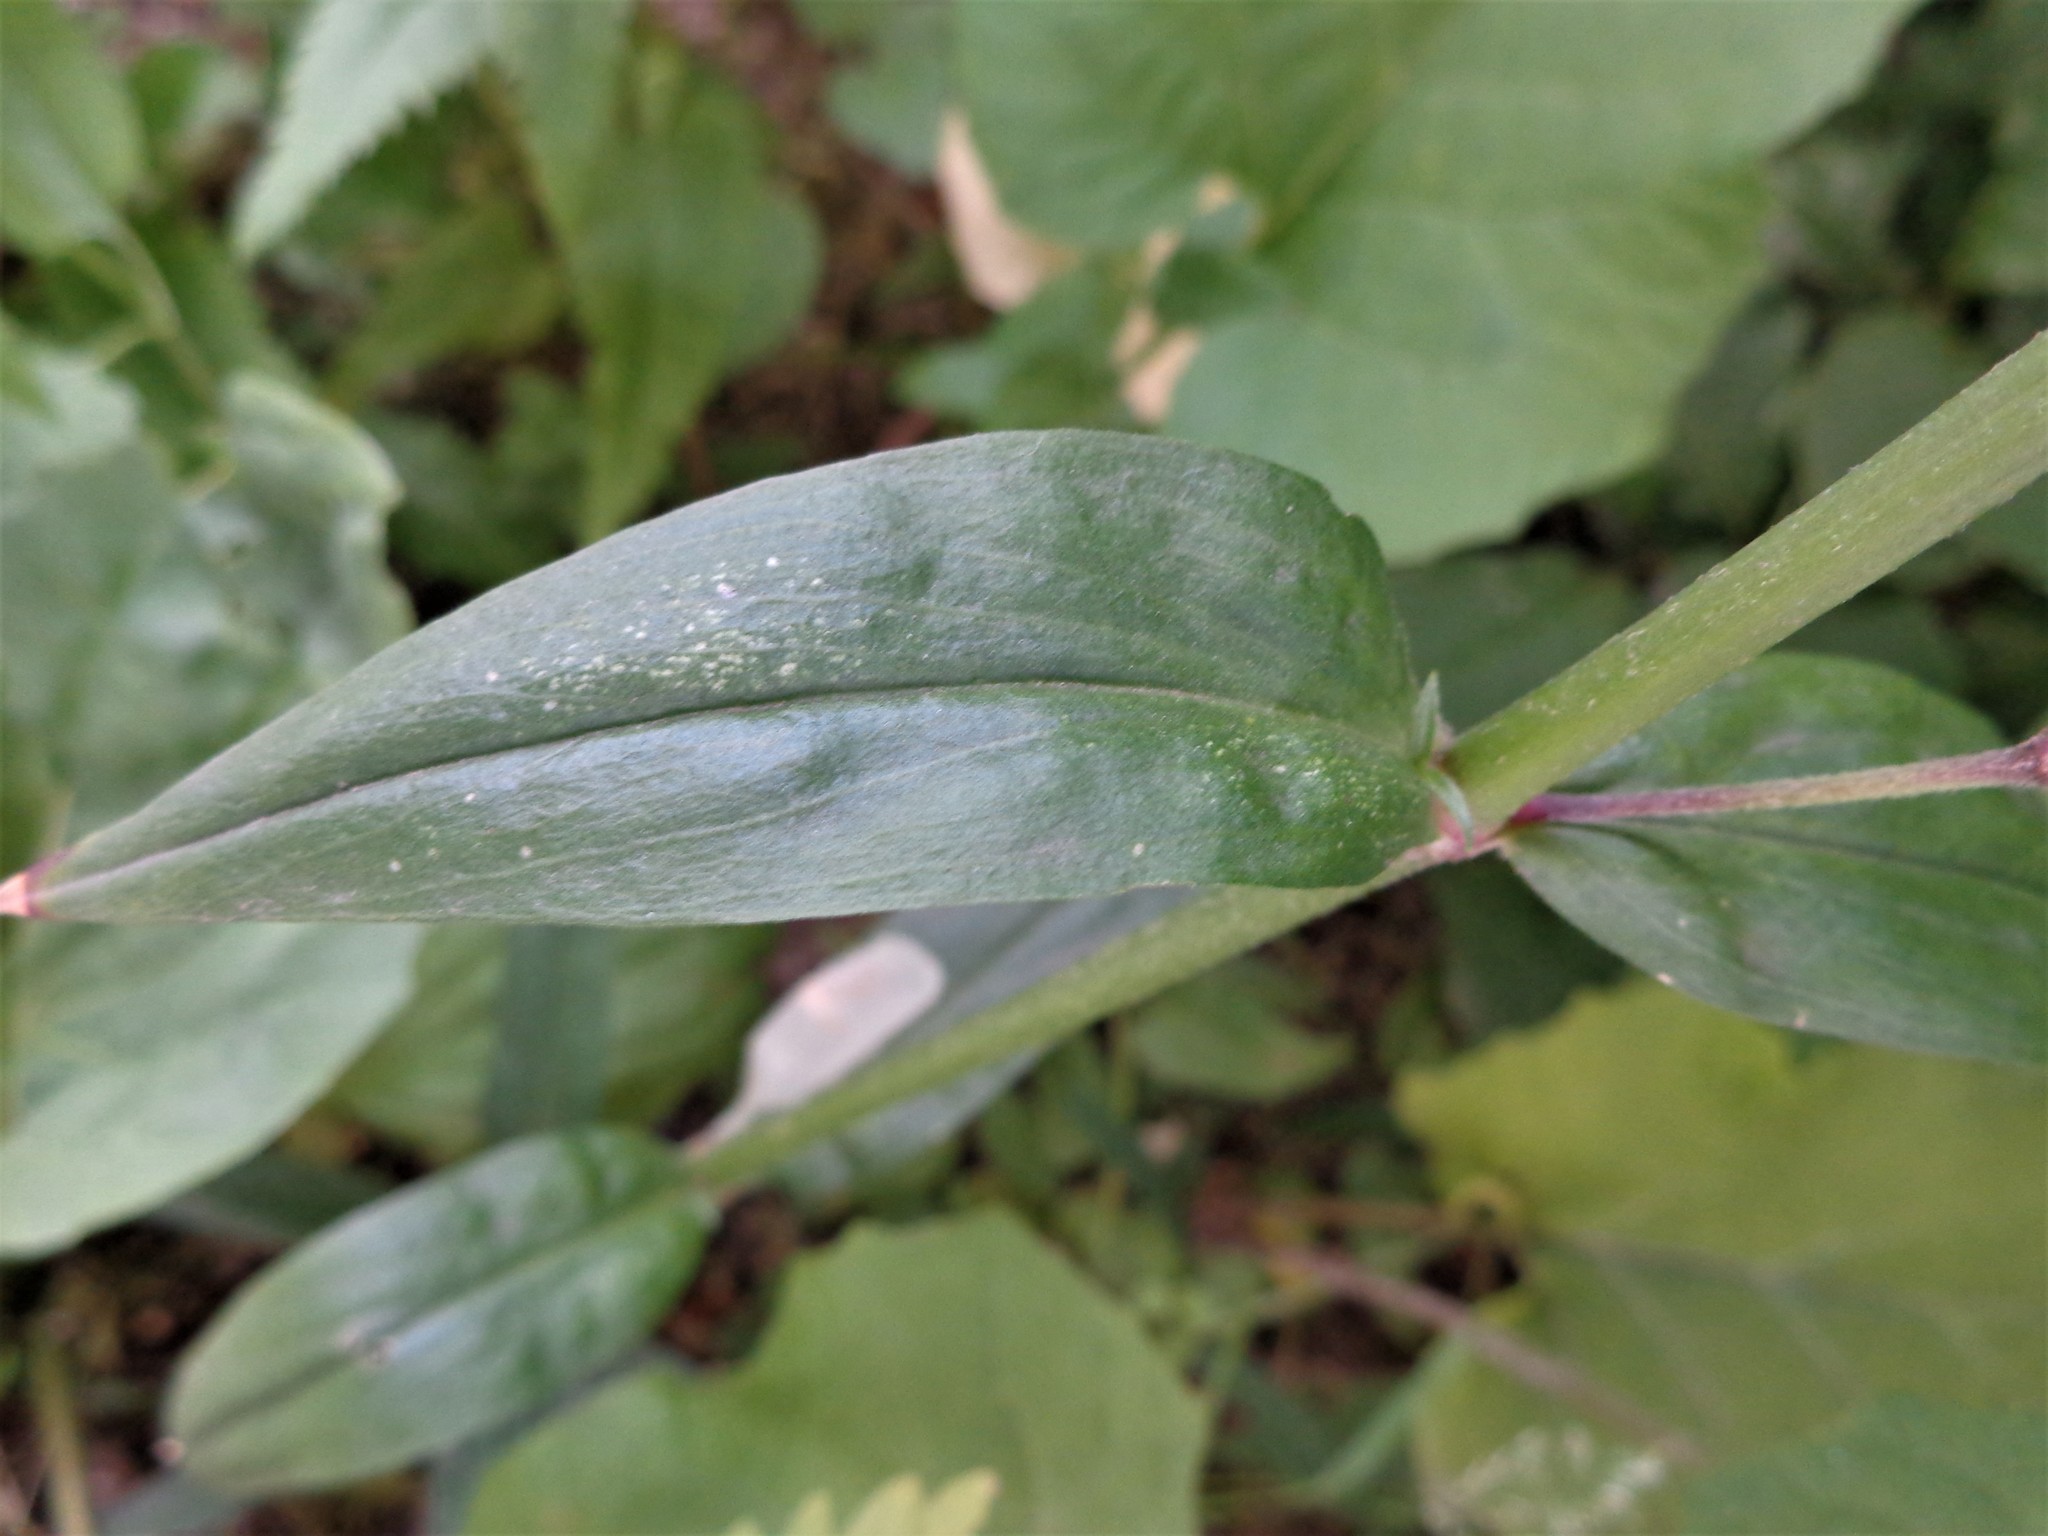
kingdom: Plantae
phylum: Tracheophyta
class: Magnoliopsida
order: Caryophyllales
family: Caryophyllaceae
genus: Silene
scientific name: Silene flos-cuculi
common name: Ragged-robin
